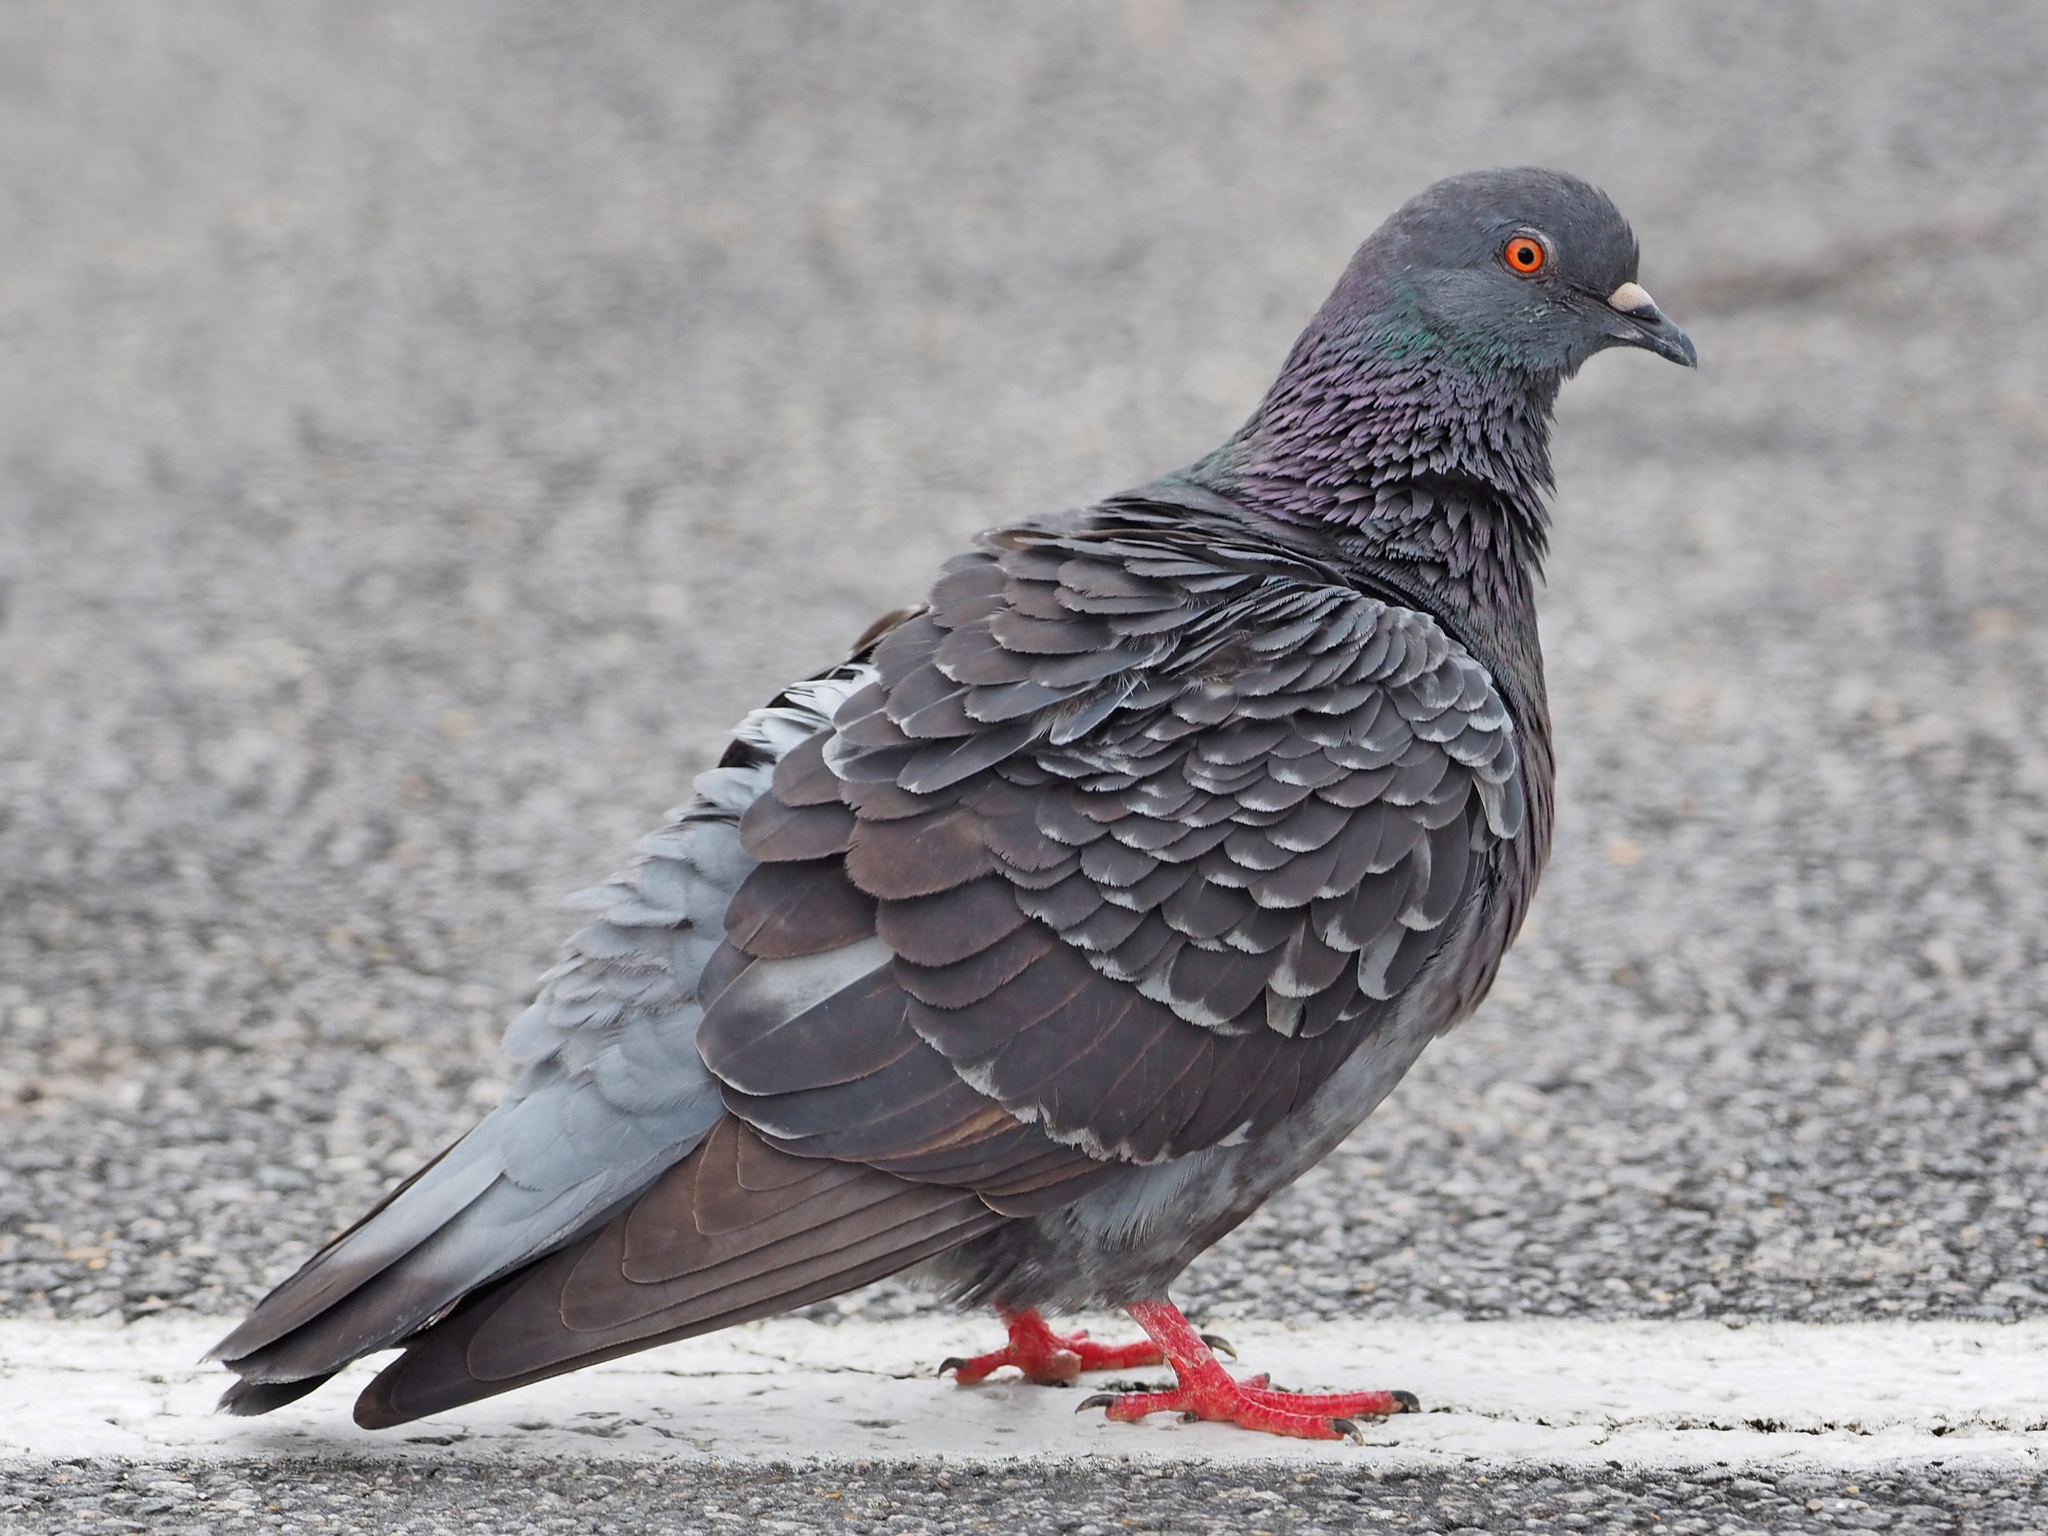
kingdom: Animalia
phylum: Chordata
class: Aves
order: Columbiformes
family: Columbidae
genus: Columba
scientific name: Columba livia
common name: Rock pigeon
